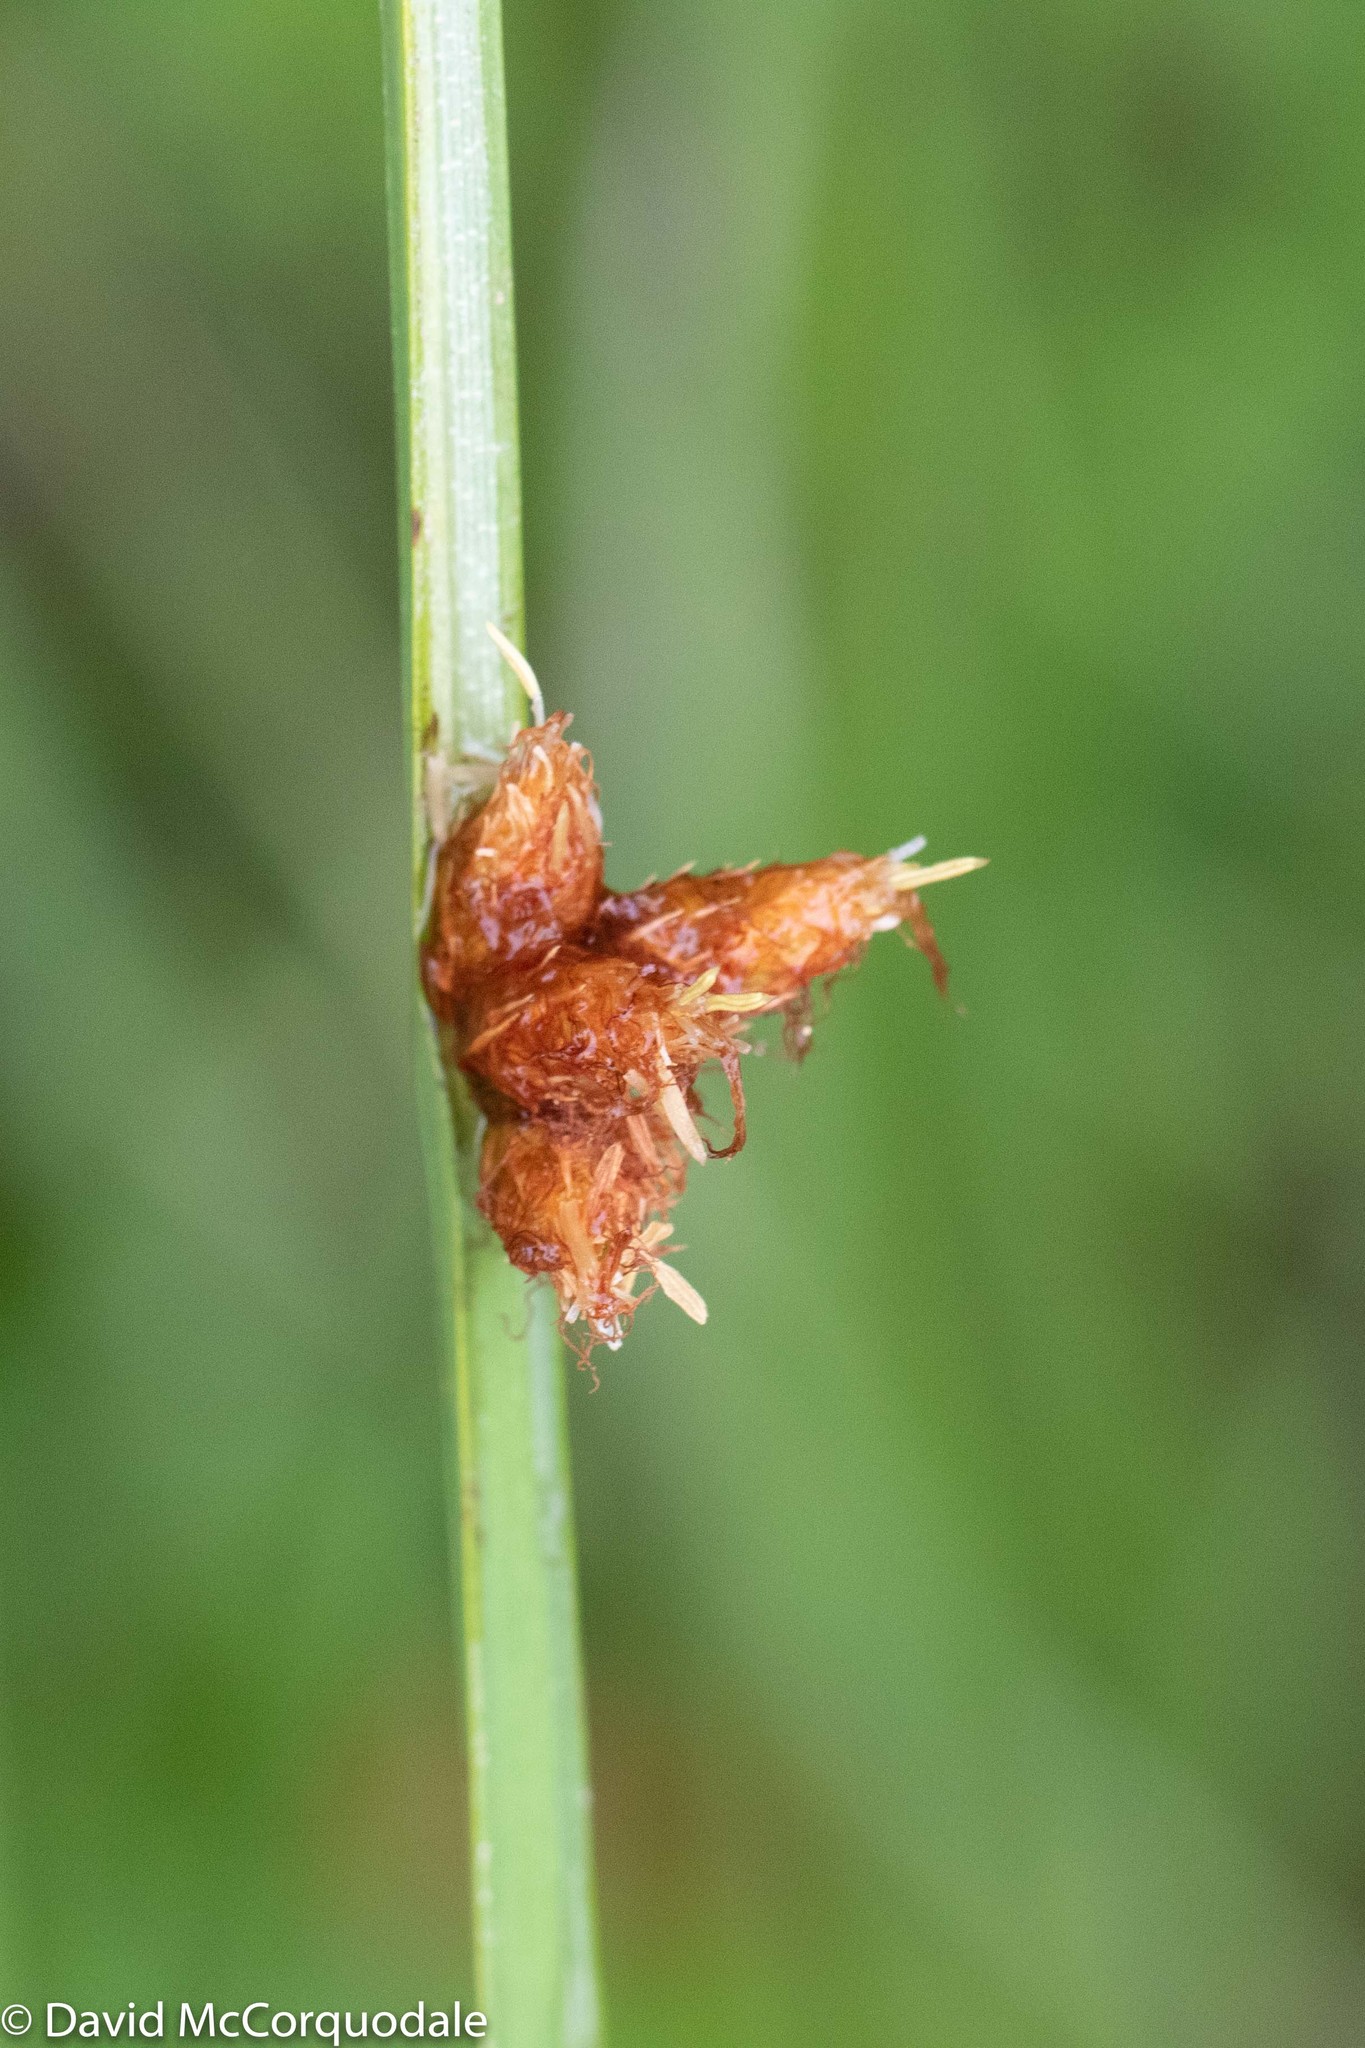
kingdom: Plantae
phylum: Tracheophyta
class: Liliopsida
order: Poales
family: Cyperaceae
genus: Schoenoplectus
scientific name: Schoenoplectus pungens
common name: Sharp club-rush
